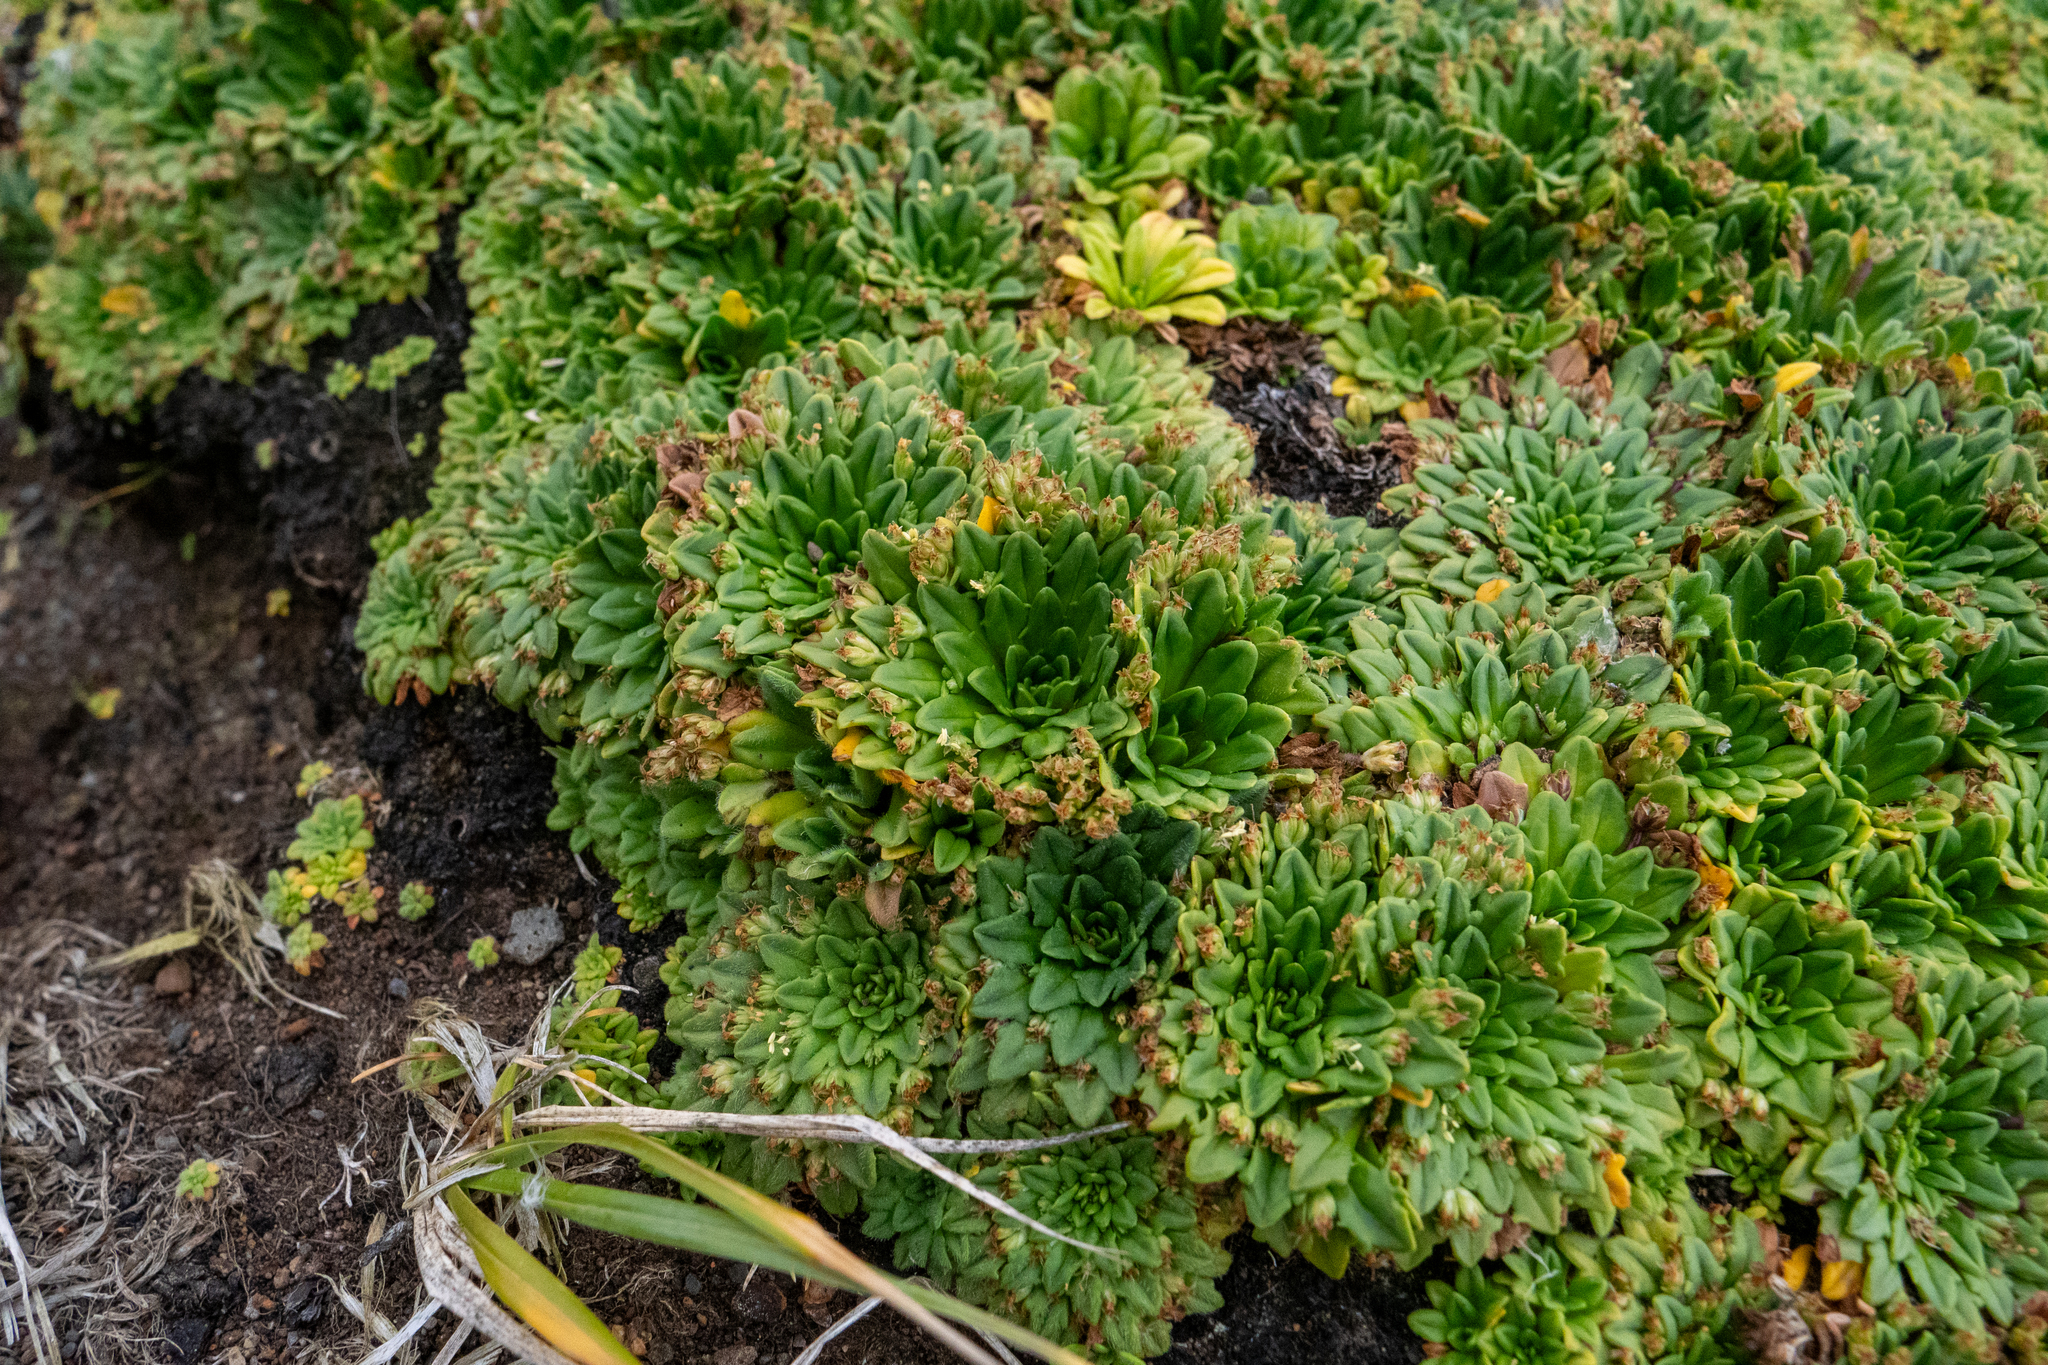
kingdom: Plantae
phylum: Tracheophyta
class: Magnoliopsida
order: Lamiales
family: Plantaginaceae
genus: Plantago
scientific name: Plantago brownii
